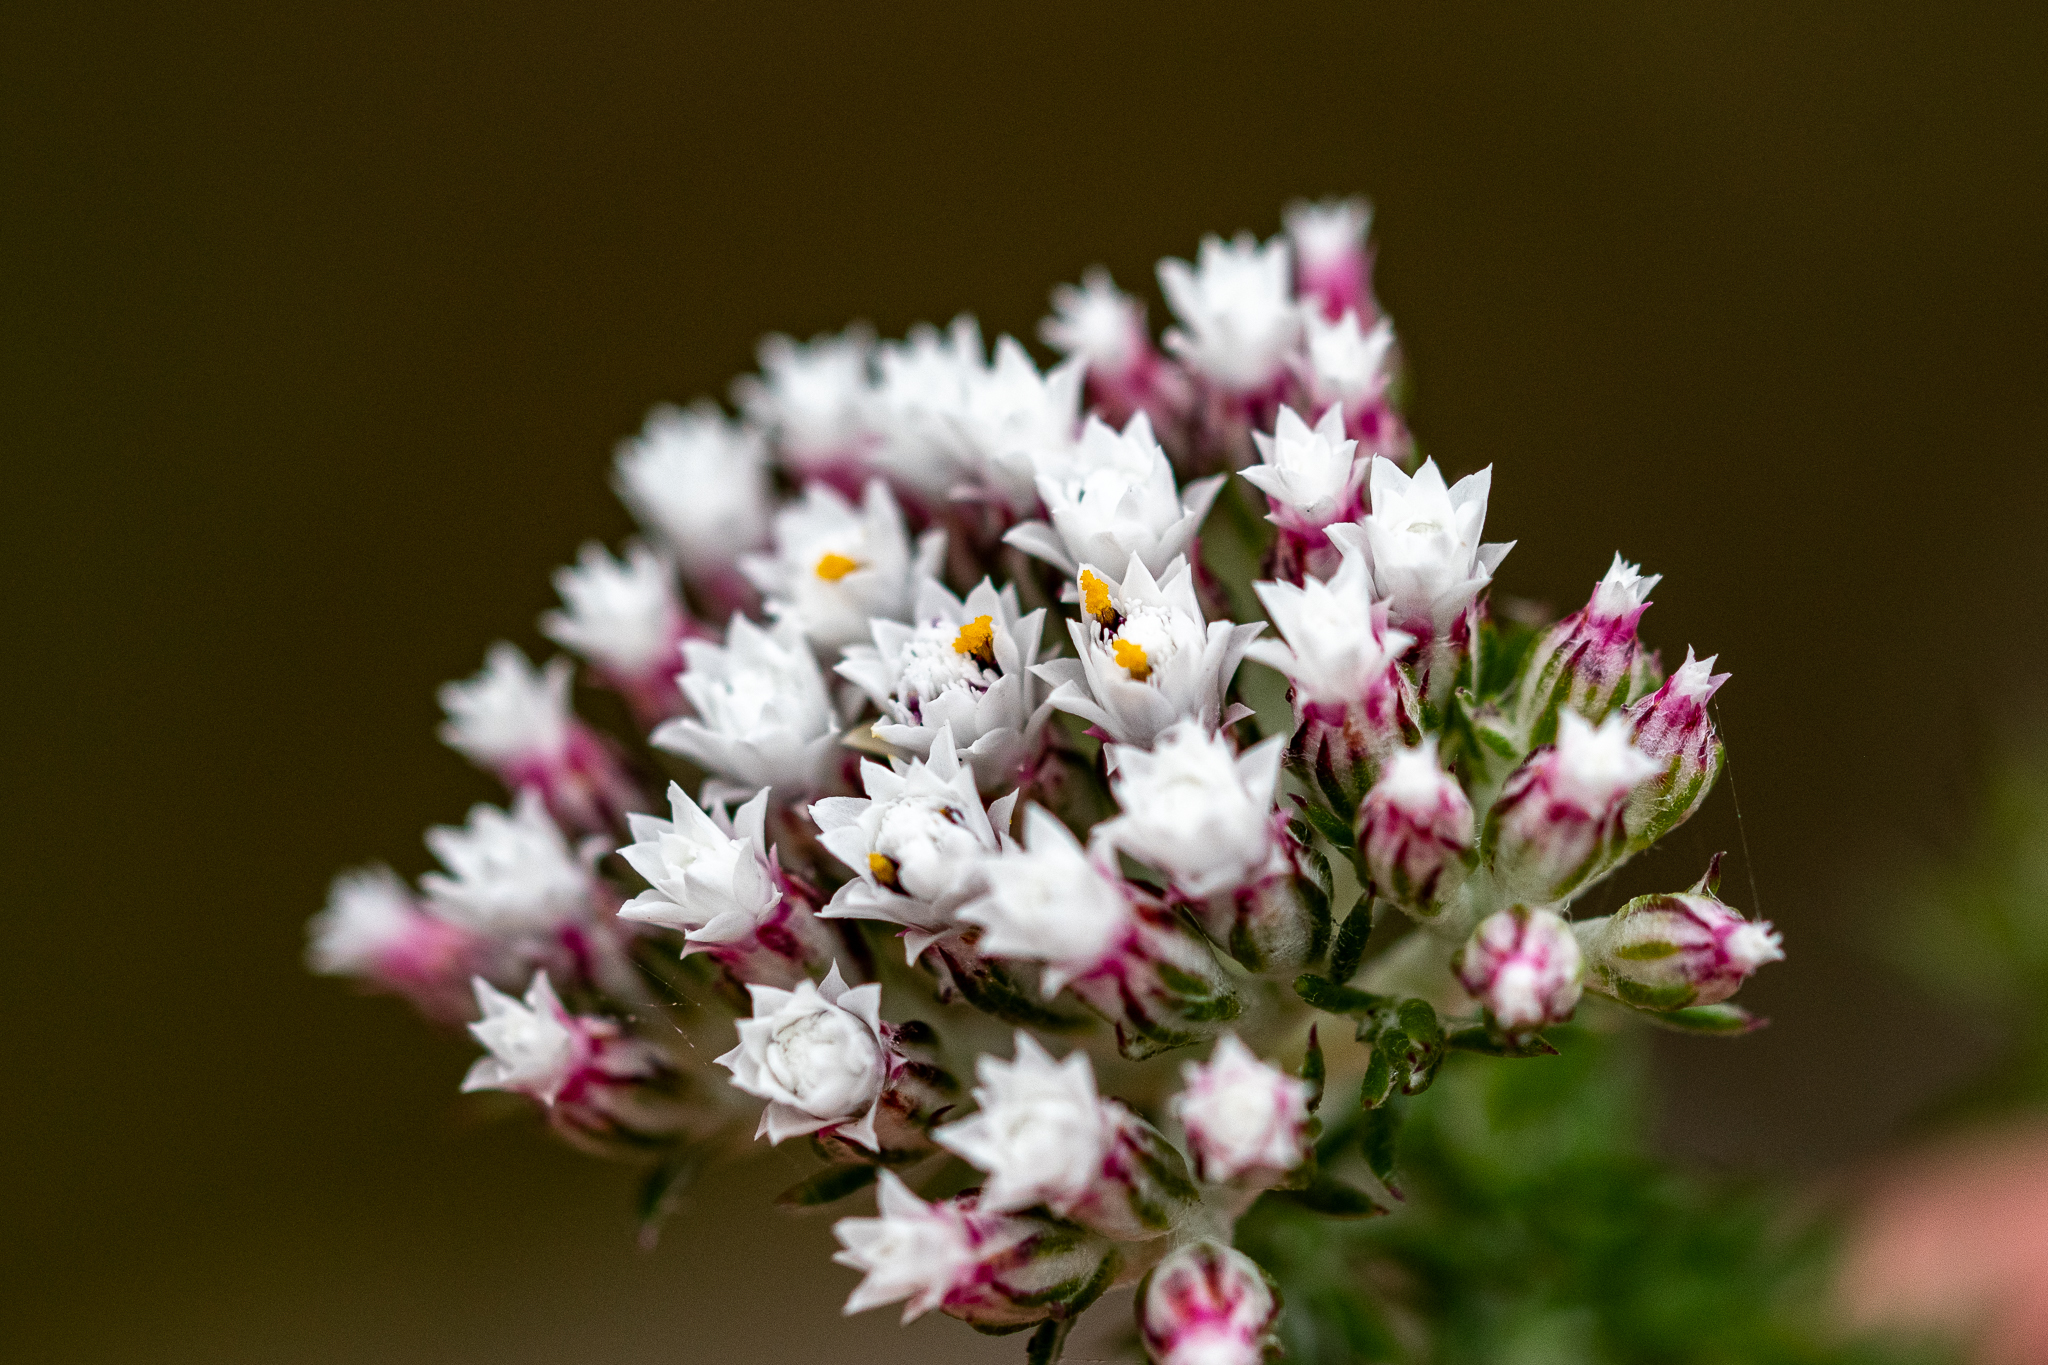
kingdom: Plantae
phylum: Tracheophyta
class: Magnoliopsida
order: Asterales
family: Asteraceae
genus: Metalasia
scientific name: Metalasia lichtensteinii
